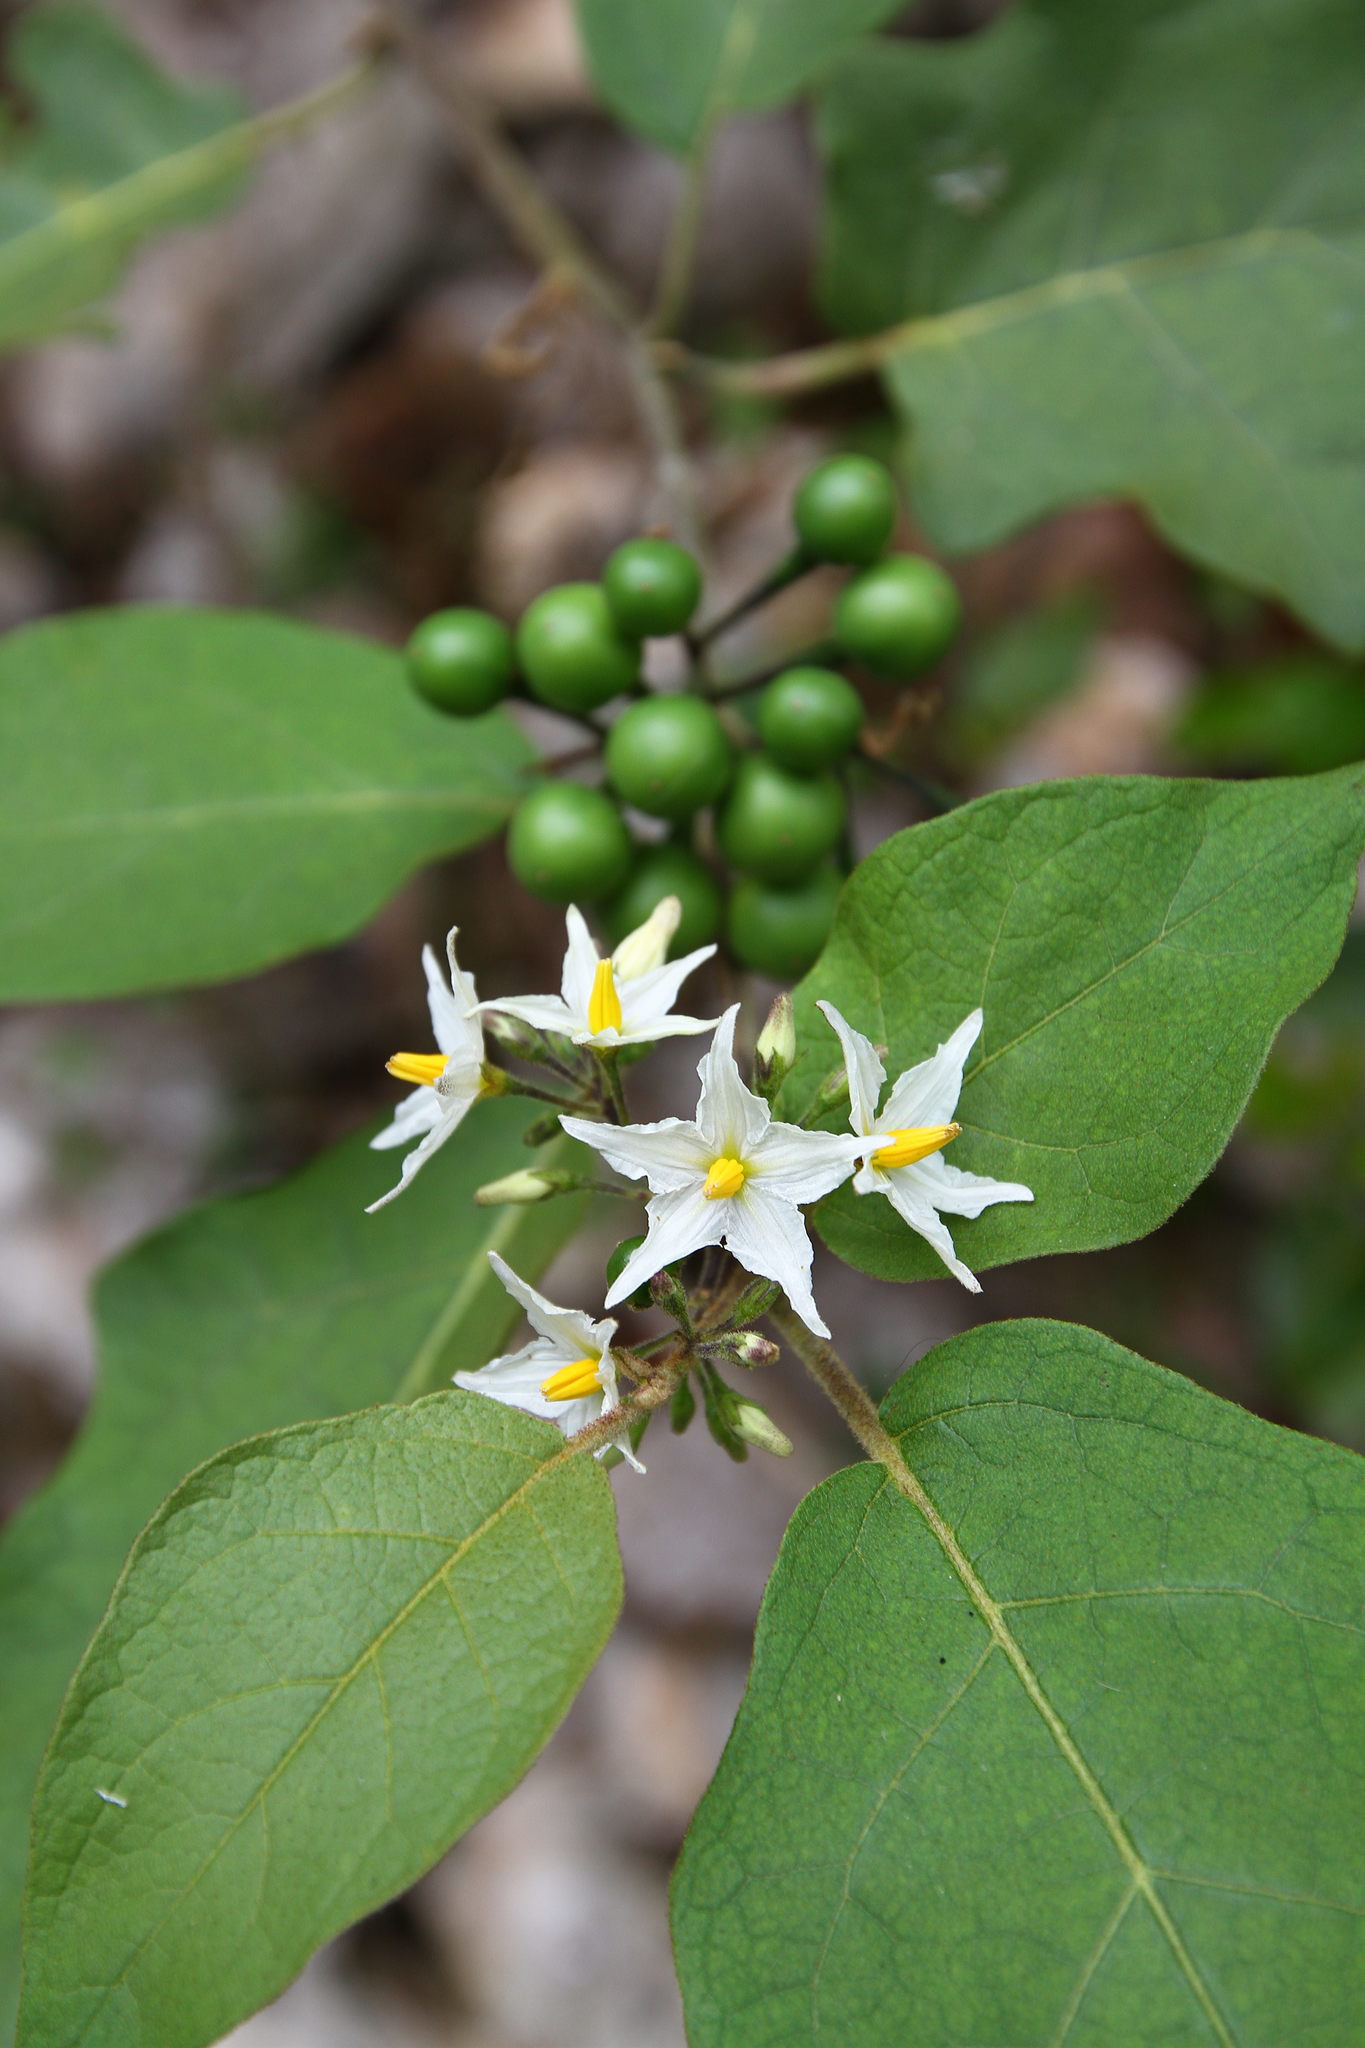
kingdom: Plantae
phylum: Tracheophyta
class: Magnoliopsida
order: Solanales
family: Solanaceae
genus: Solanum
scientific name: Solanum torvum
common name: Turkey berry
